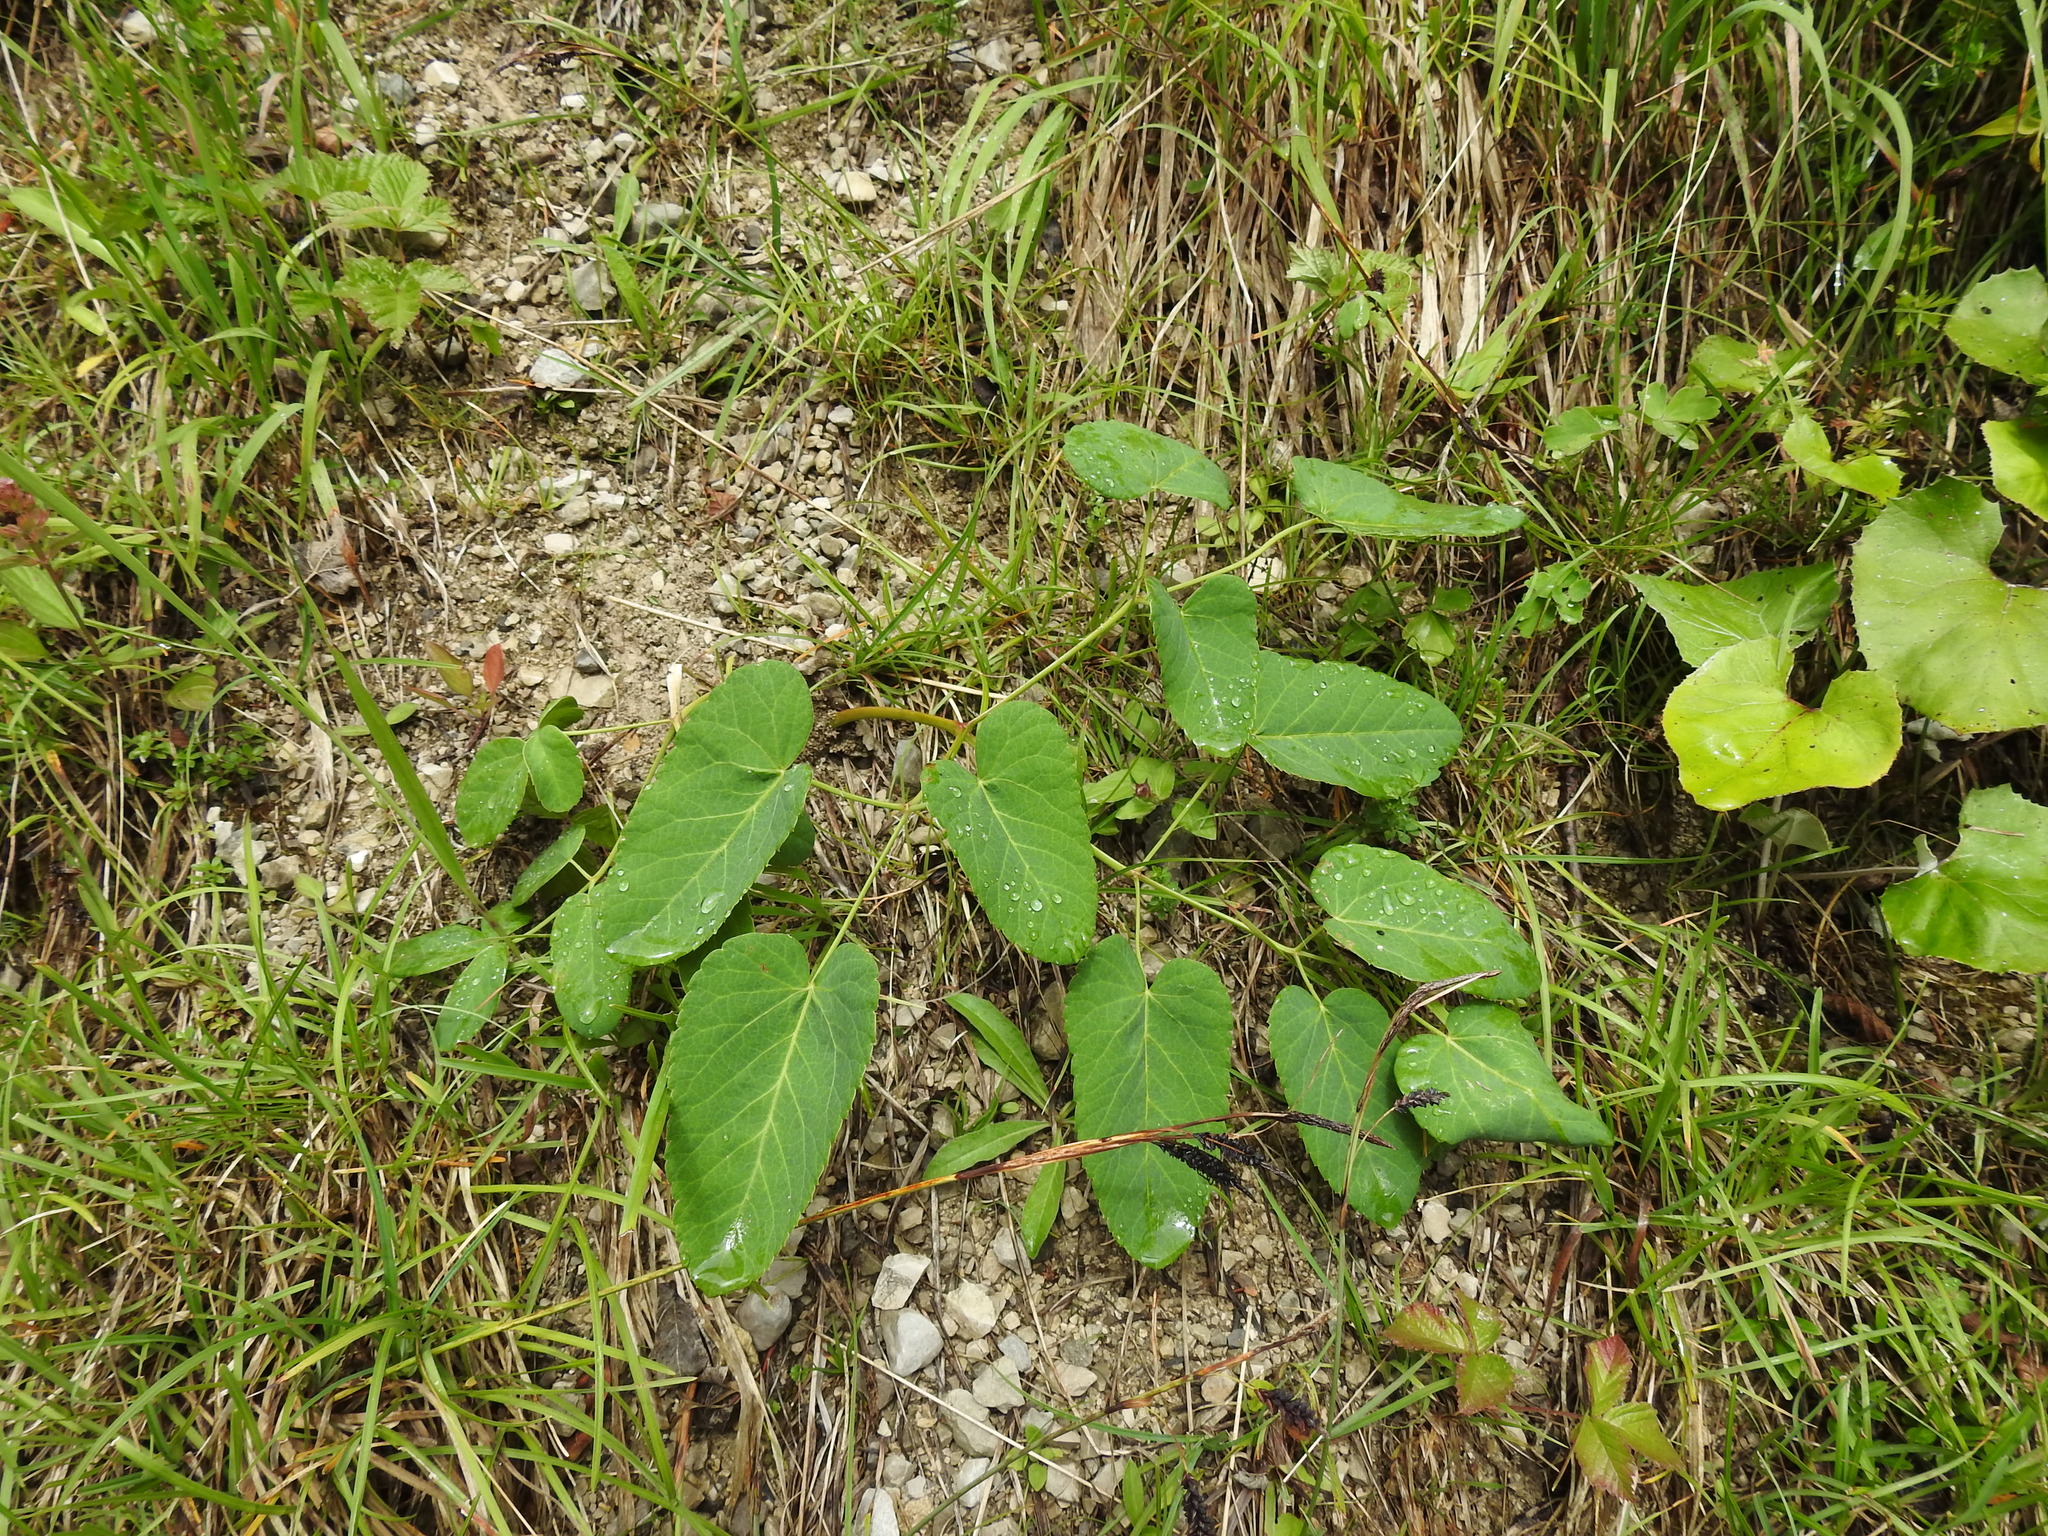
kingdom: Plantae
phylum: Tracheophyta
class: Magnoliopsida
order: Apiales
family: Apiaceae
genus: Laserpitium
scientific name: Laserpitium latifolium
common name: Broadleaf sermountain
